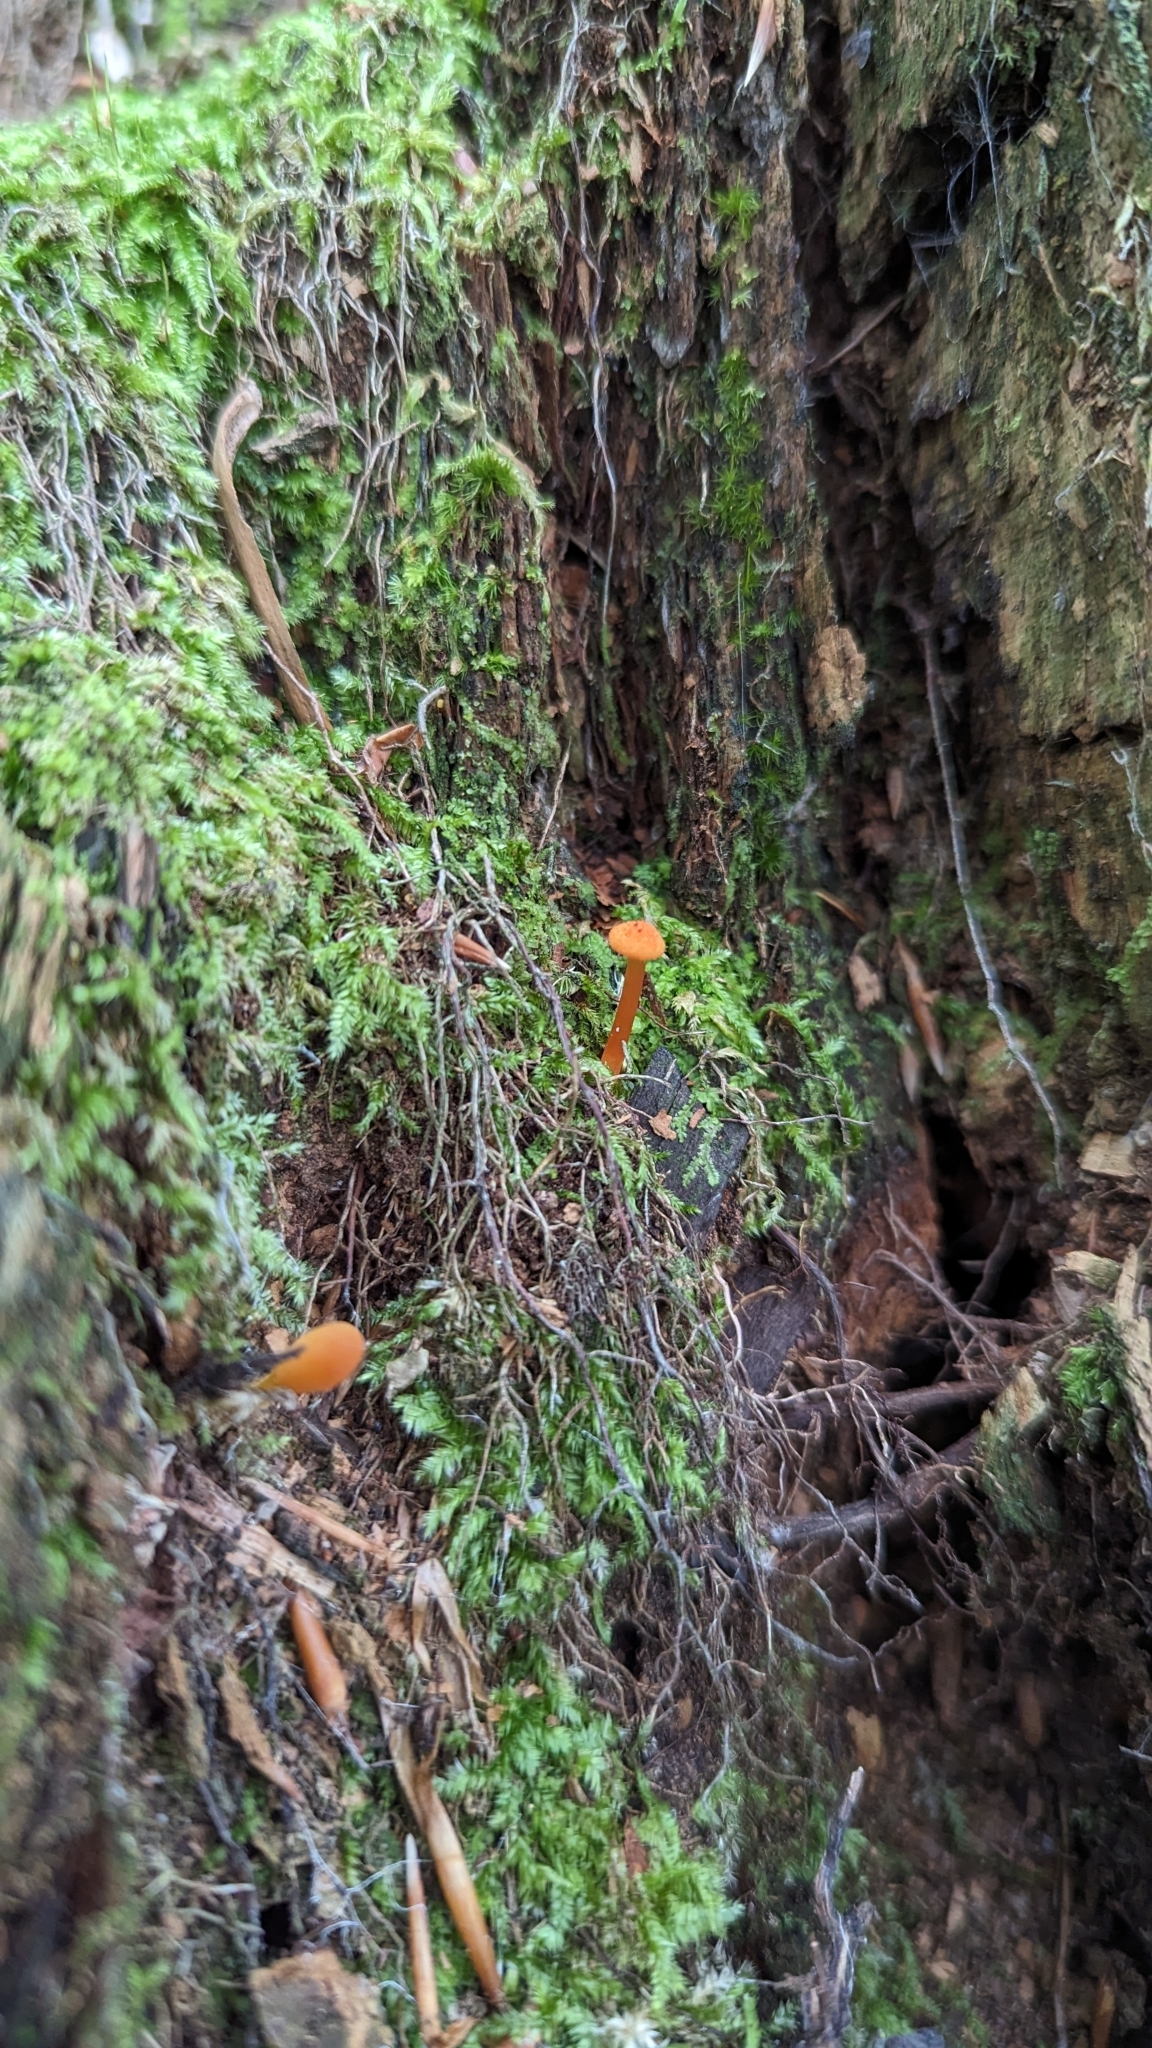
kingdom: Fungi
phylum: Basidiomycota
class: Agaricomycetes
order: Agaricales
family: Hygrophoraceae
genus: Hygrocybe
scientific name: Hygrocybe cantharellus
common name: Goblet waxcap
